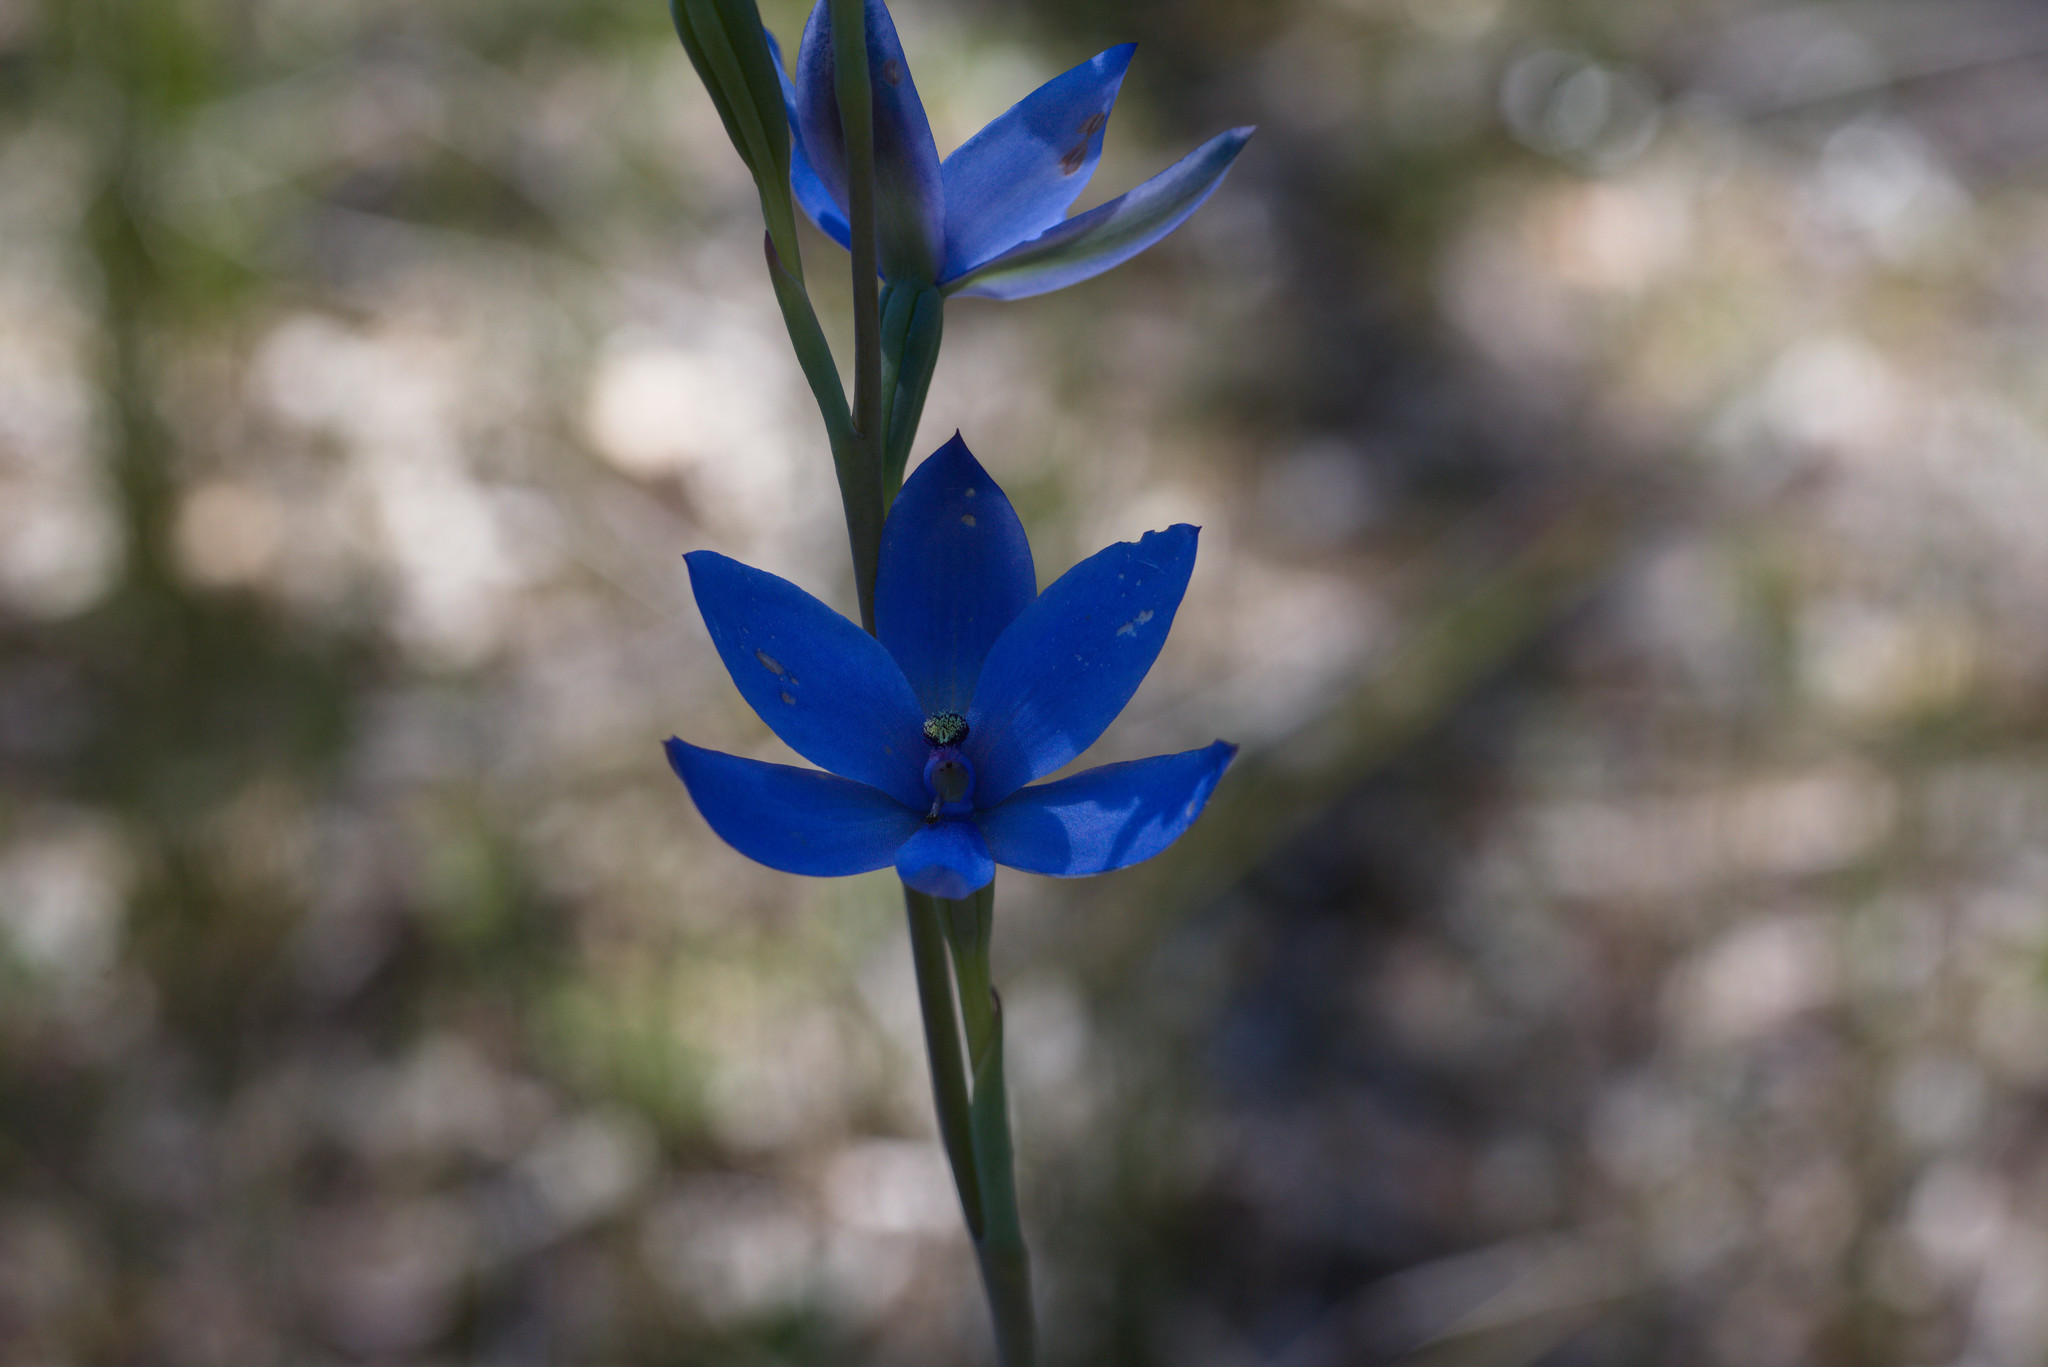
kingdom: Plantae
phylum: Tracheophyta
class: Liliopsida
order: Asparagales
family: Orchidaceae
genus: Thelymitra
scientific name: Thelymitra crinita
